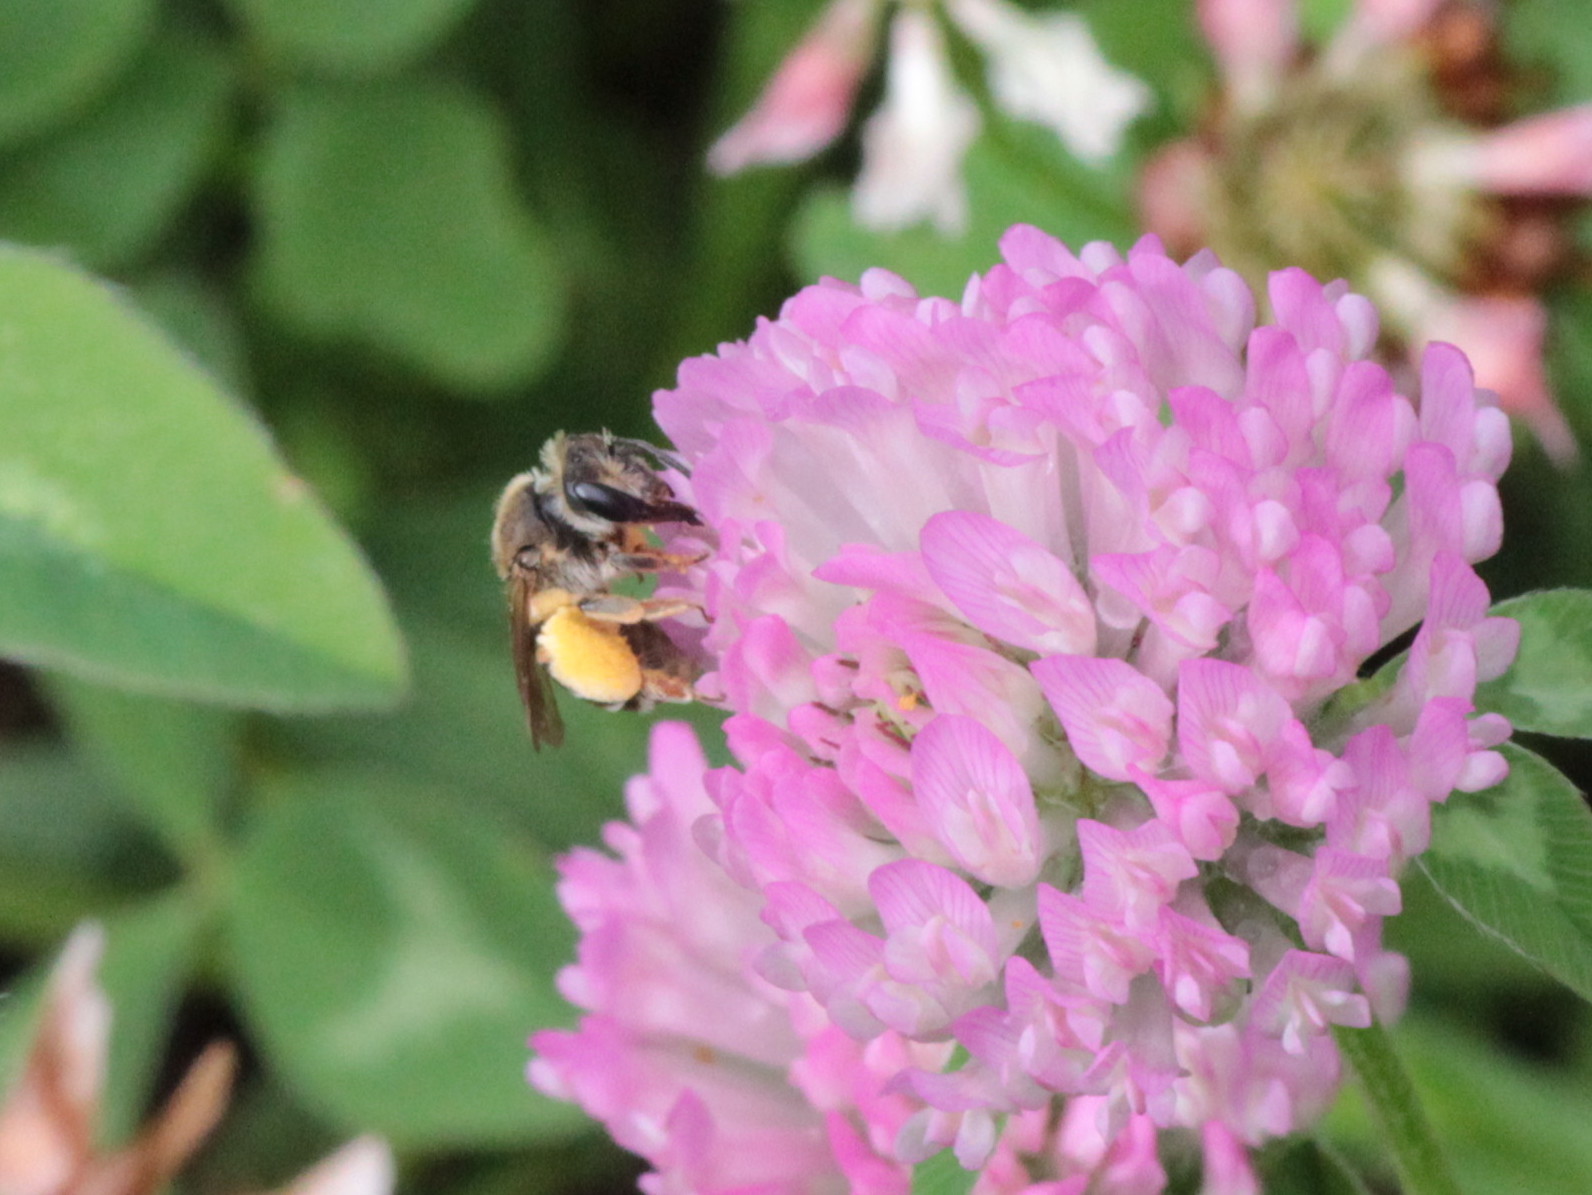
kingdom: Animalia
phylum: Arthropoda
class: Insecta
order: Hymenoptera
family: Andrenidae
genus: Andrena
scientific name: Andrena wilkella
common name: Wilke's mining bee
